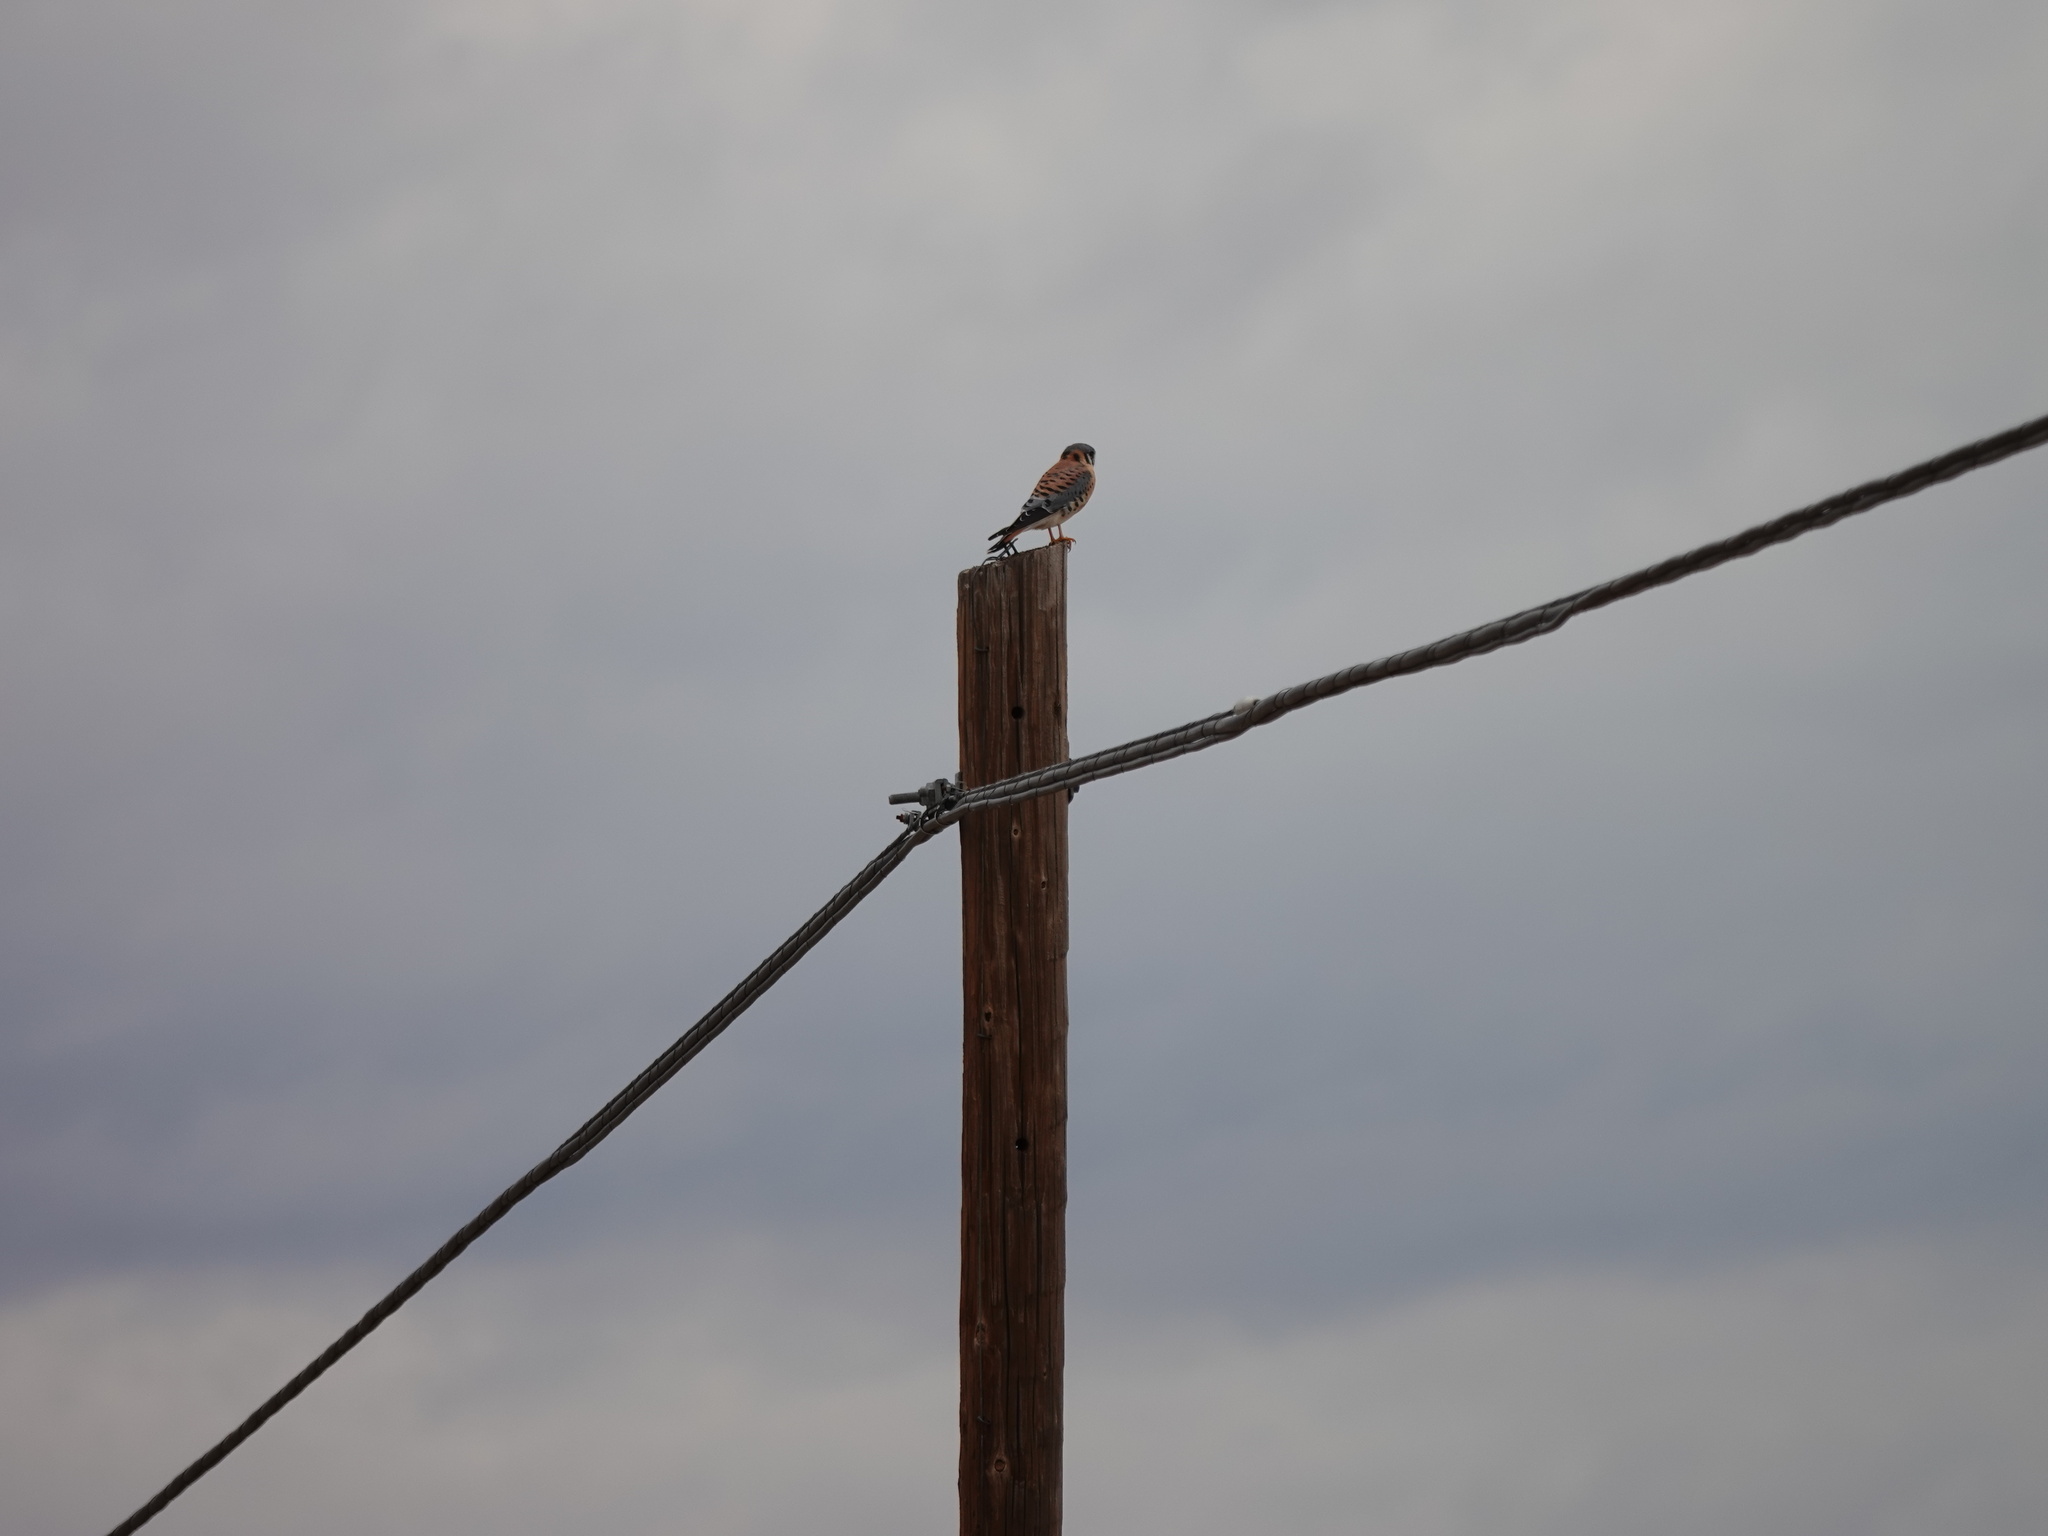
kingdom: Animalia
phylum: Chordata
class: Aves
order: Falconiformes
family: Falconidae
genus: Falco
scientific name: Falco sparverius
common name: American kestrel
